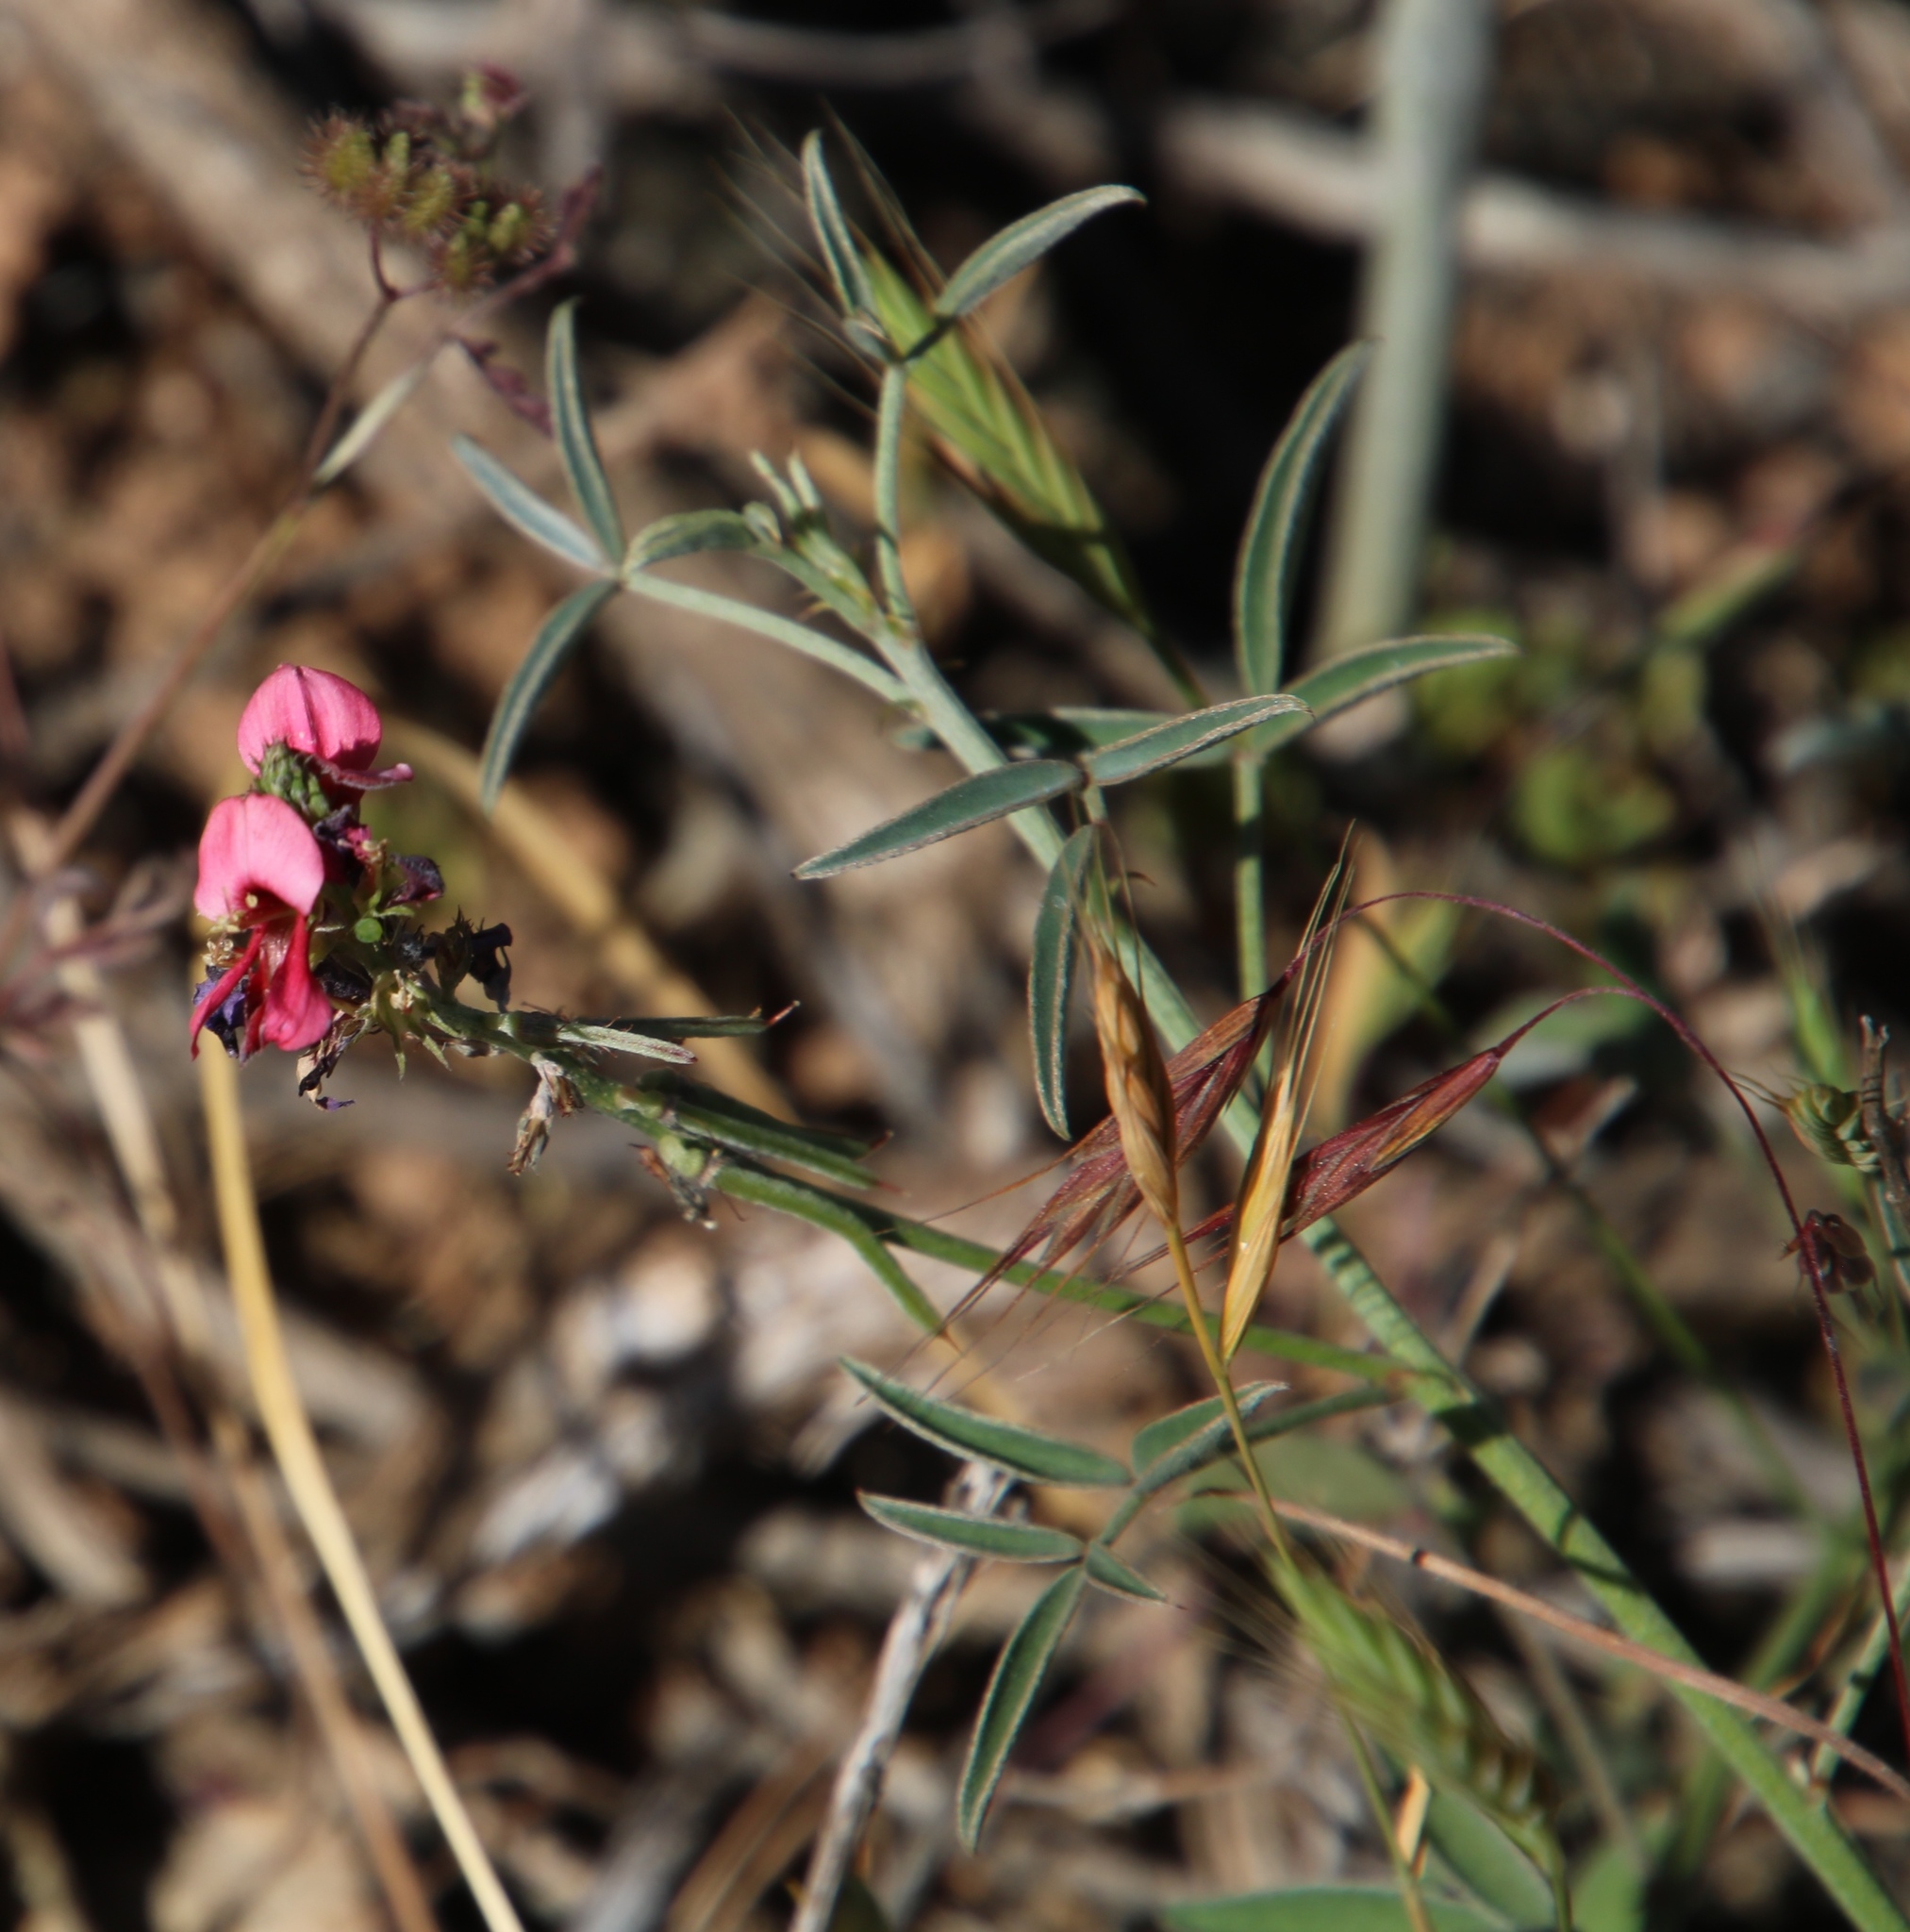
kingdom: Plantae
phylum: Tracheophyta
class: Magnoliopsida
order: Fabales
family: Fabaceae
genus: Indigofera
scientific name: Indigofera heterophylla
